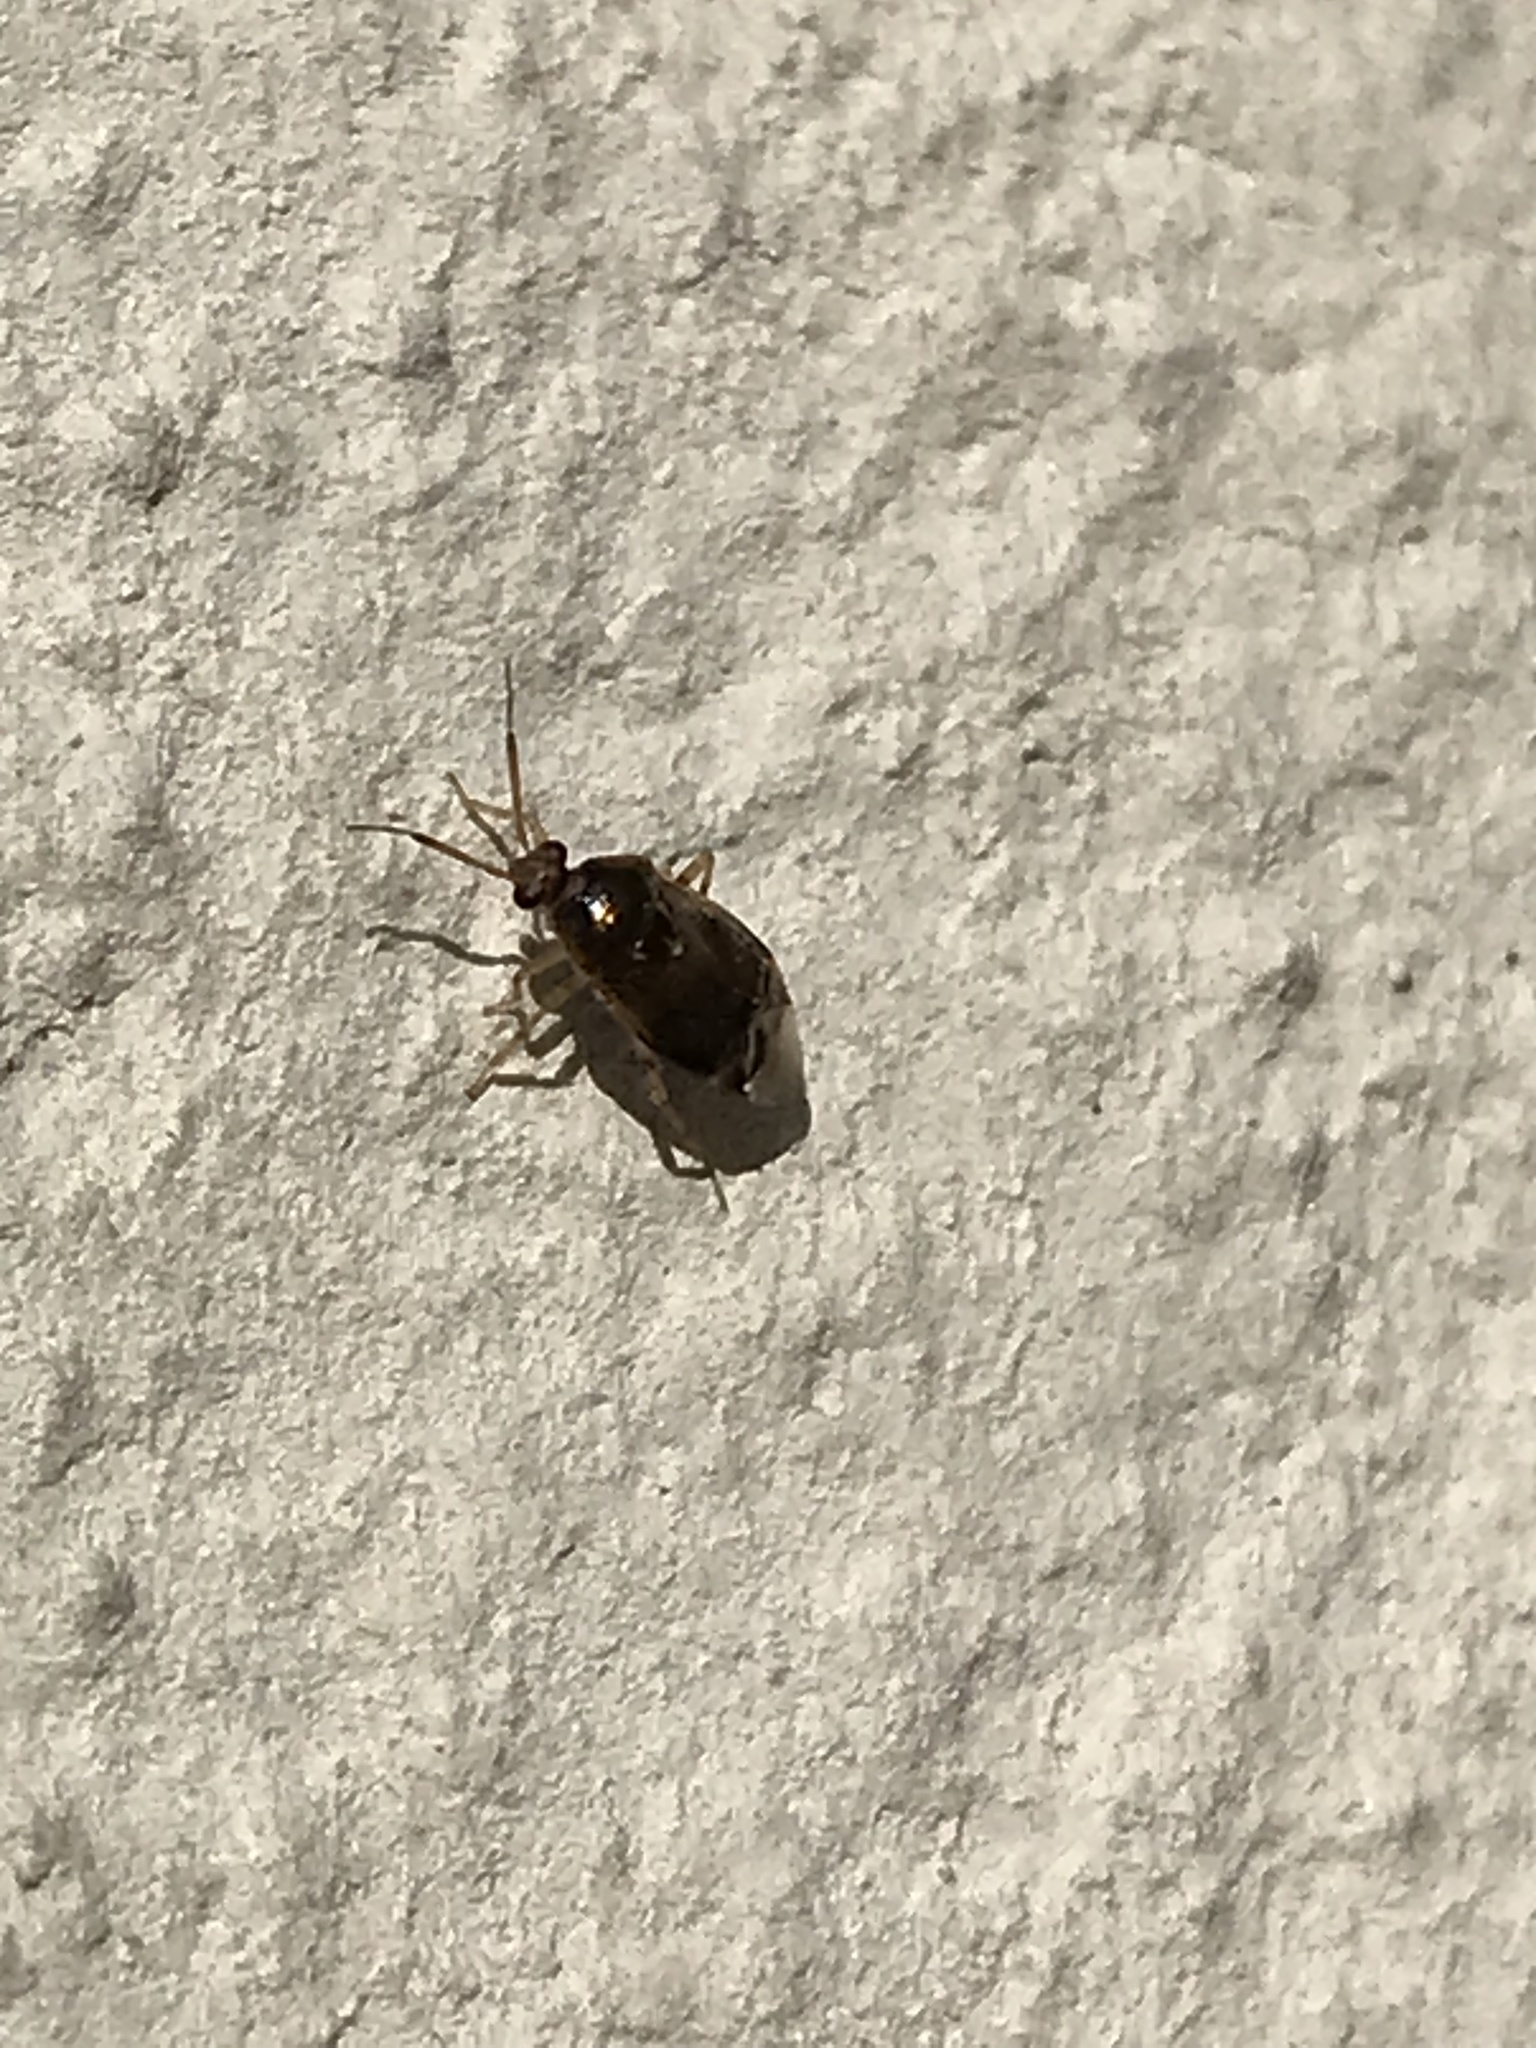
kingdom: Animalia
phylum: Arthropoda
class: Insecta
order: Hemiptera
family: Miridae
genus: Deraeocoris
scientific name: Deraeocoris lutescens
